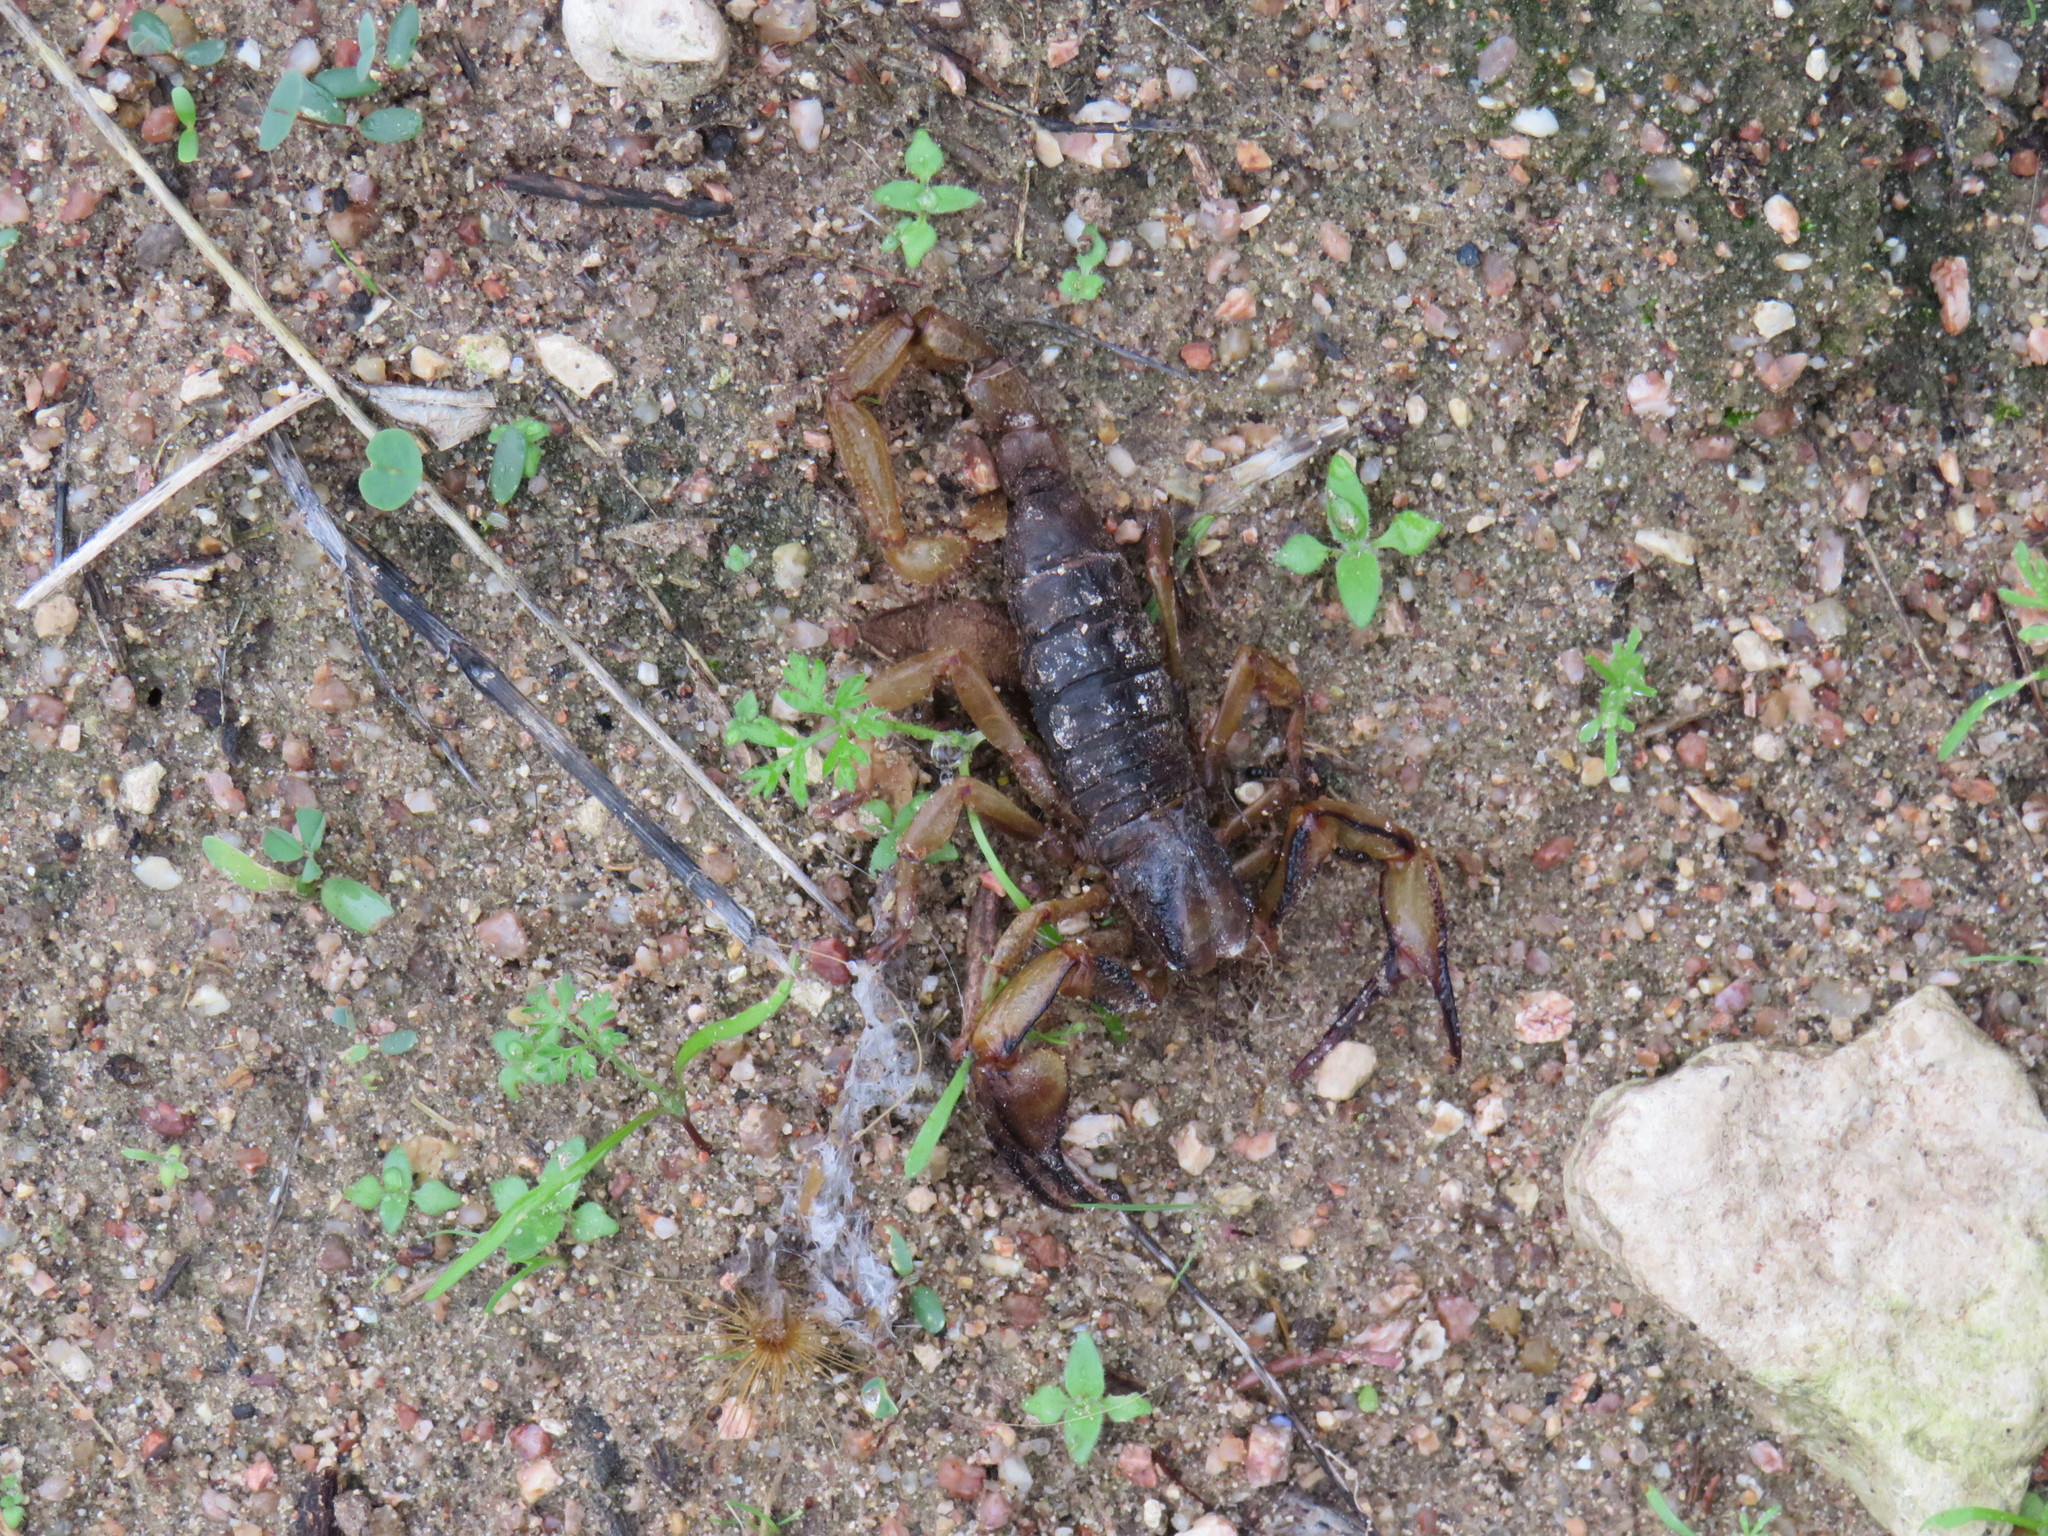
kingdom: Animalia
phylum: Arthropoda
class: Arachnida
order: Scorpiones
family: Scorpionidae
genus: Opistophthalmus
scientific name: Opistophthalmus latro
